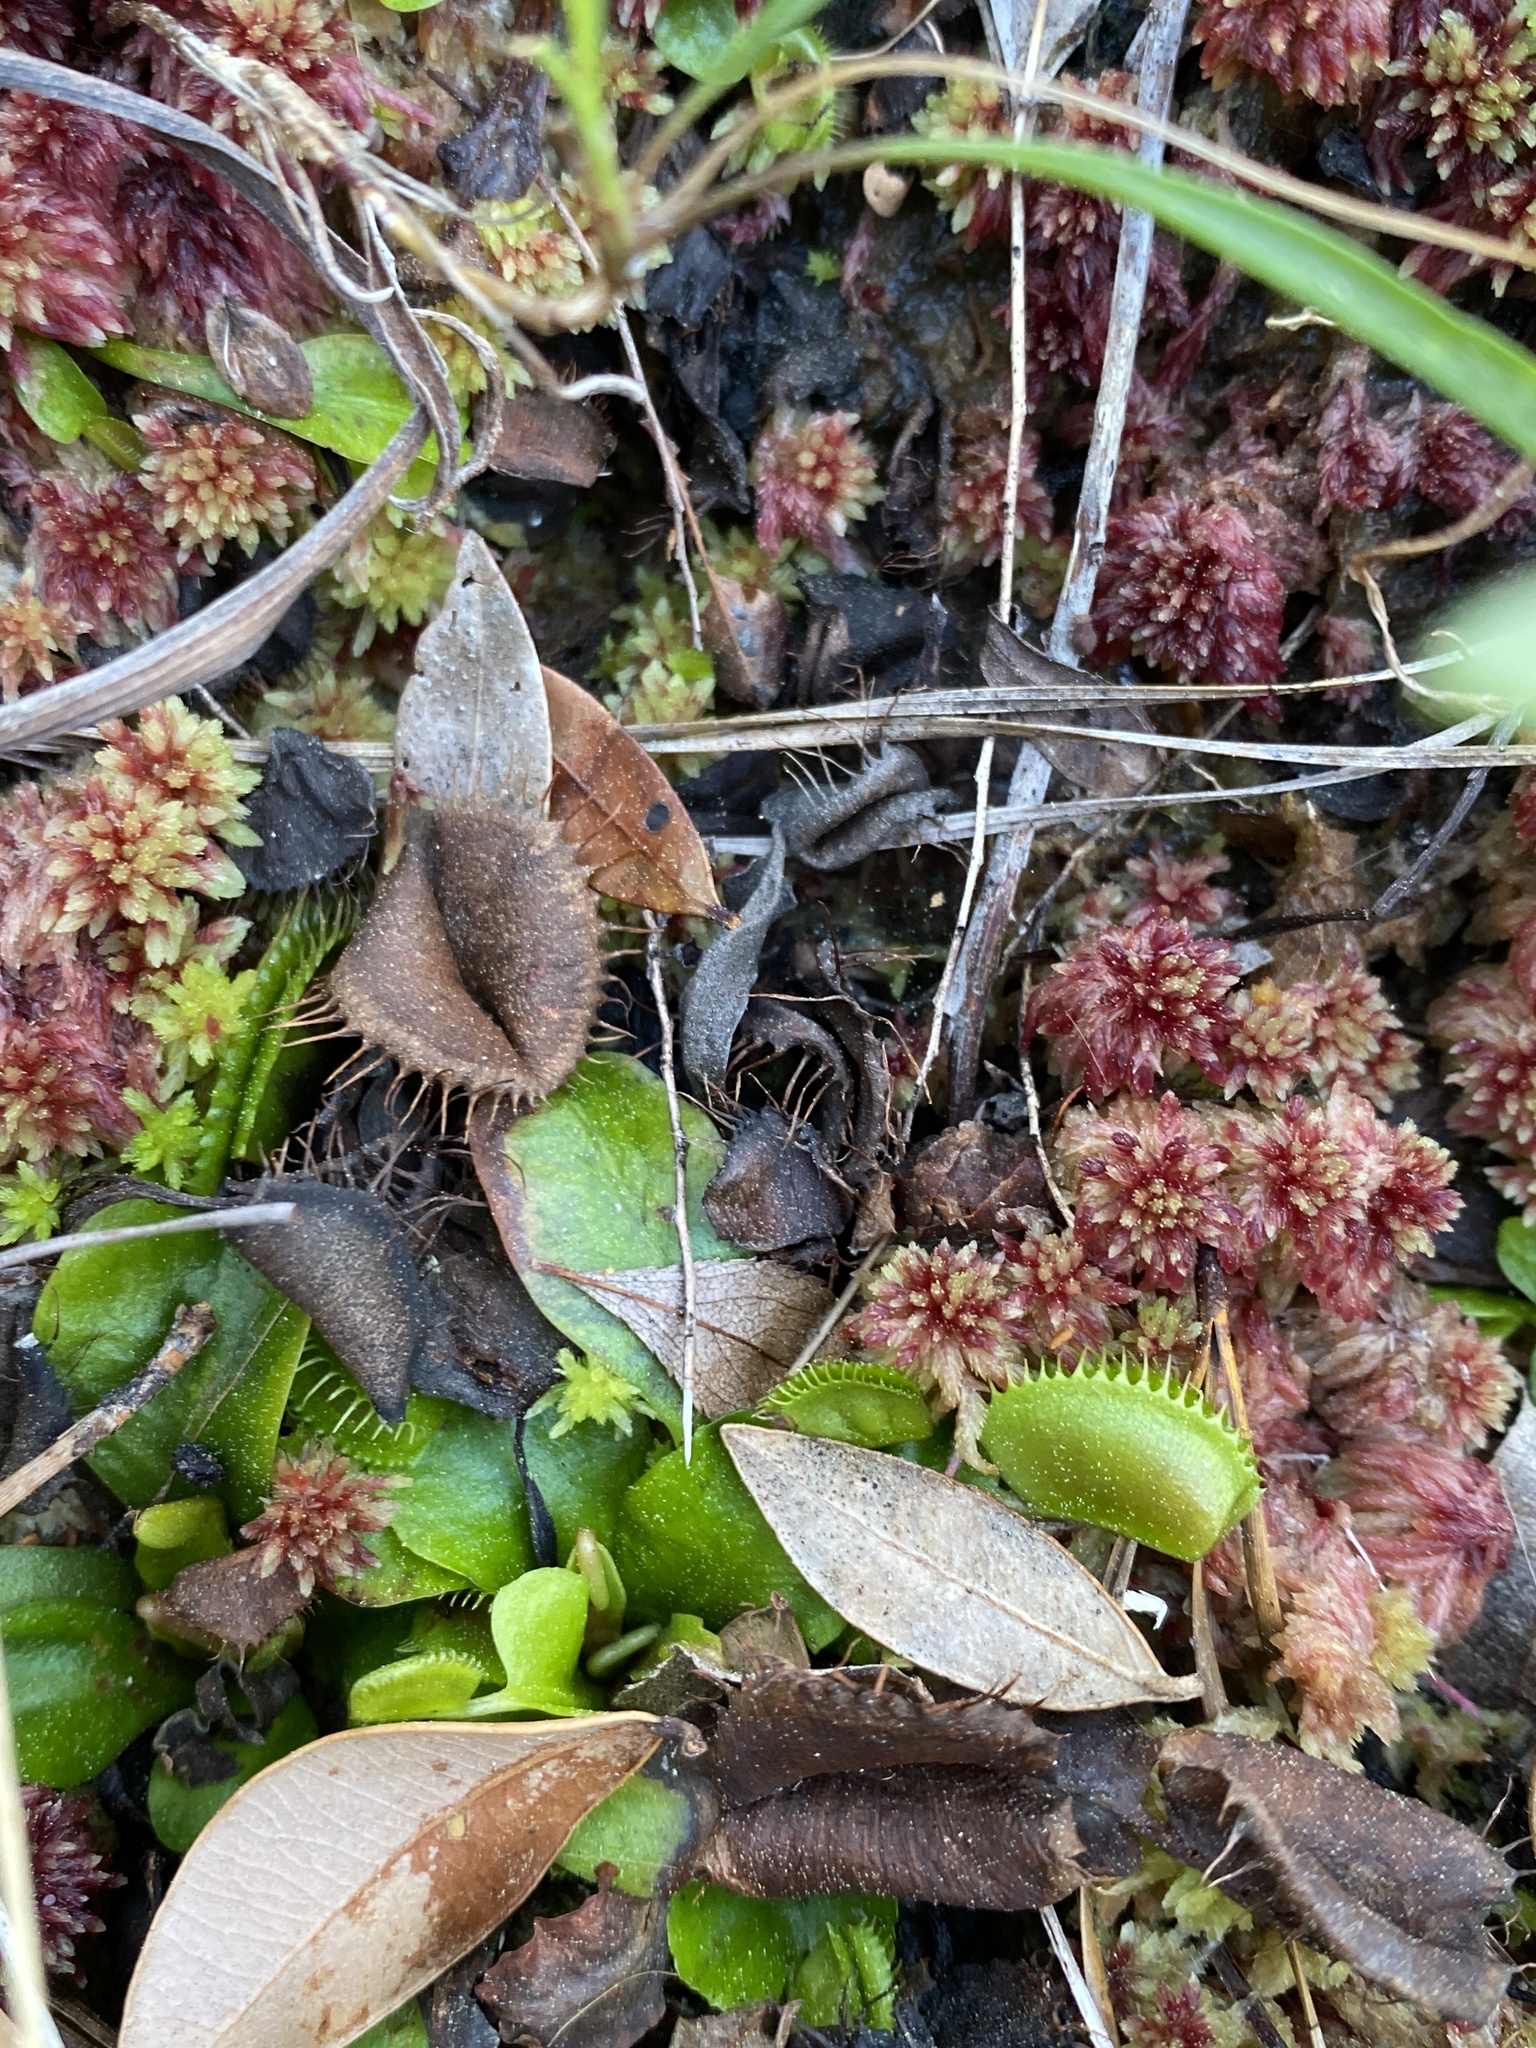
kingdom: Plantae
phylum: Tracheophyta
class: Magnoliopsida
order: Caryophyllales
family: Droseraceae
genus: Dionaea
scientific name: Dionaea muscipula
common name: Venus flytrap
